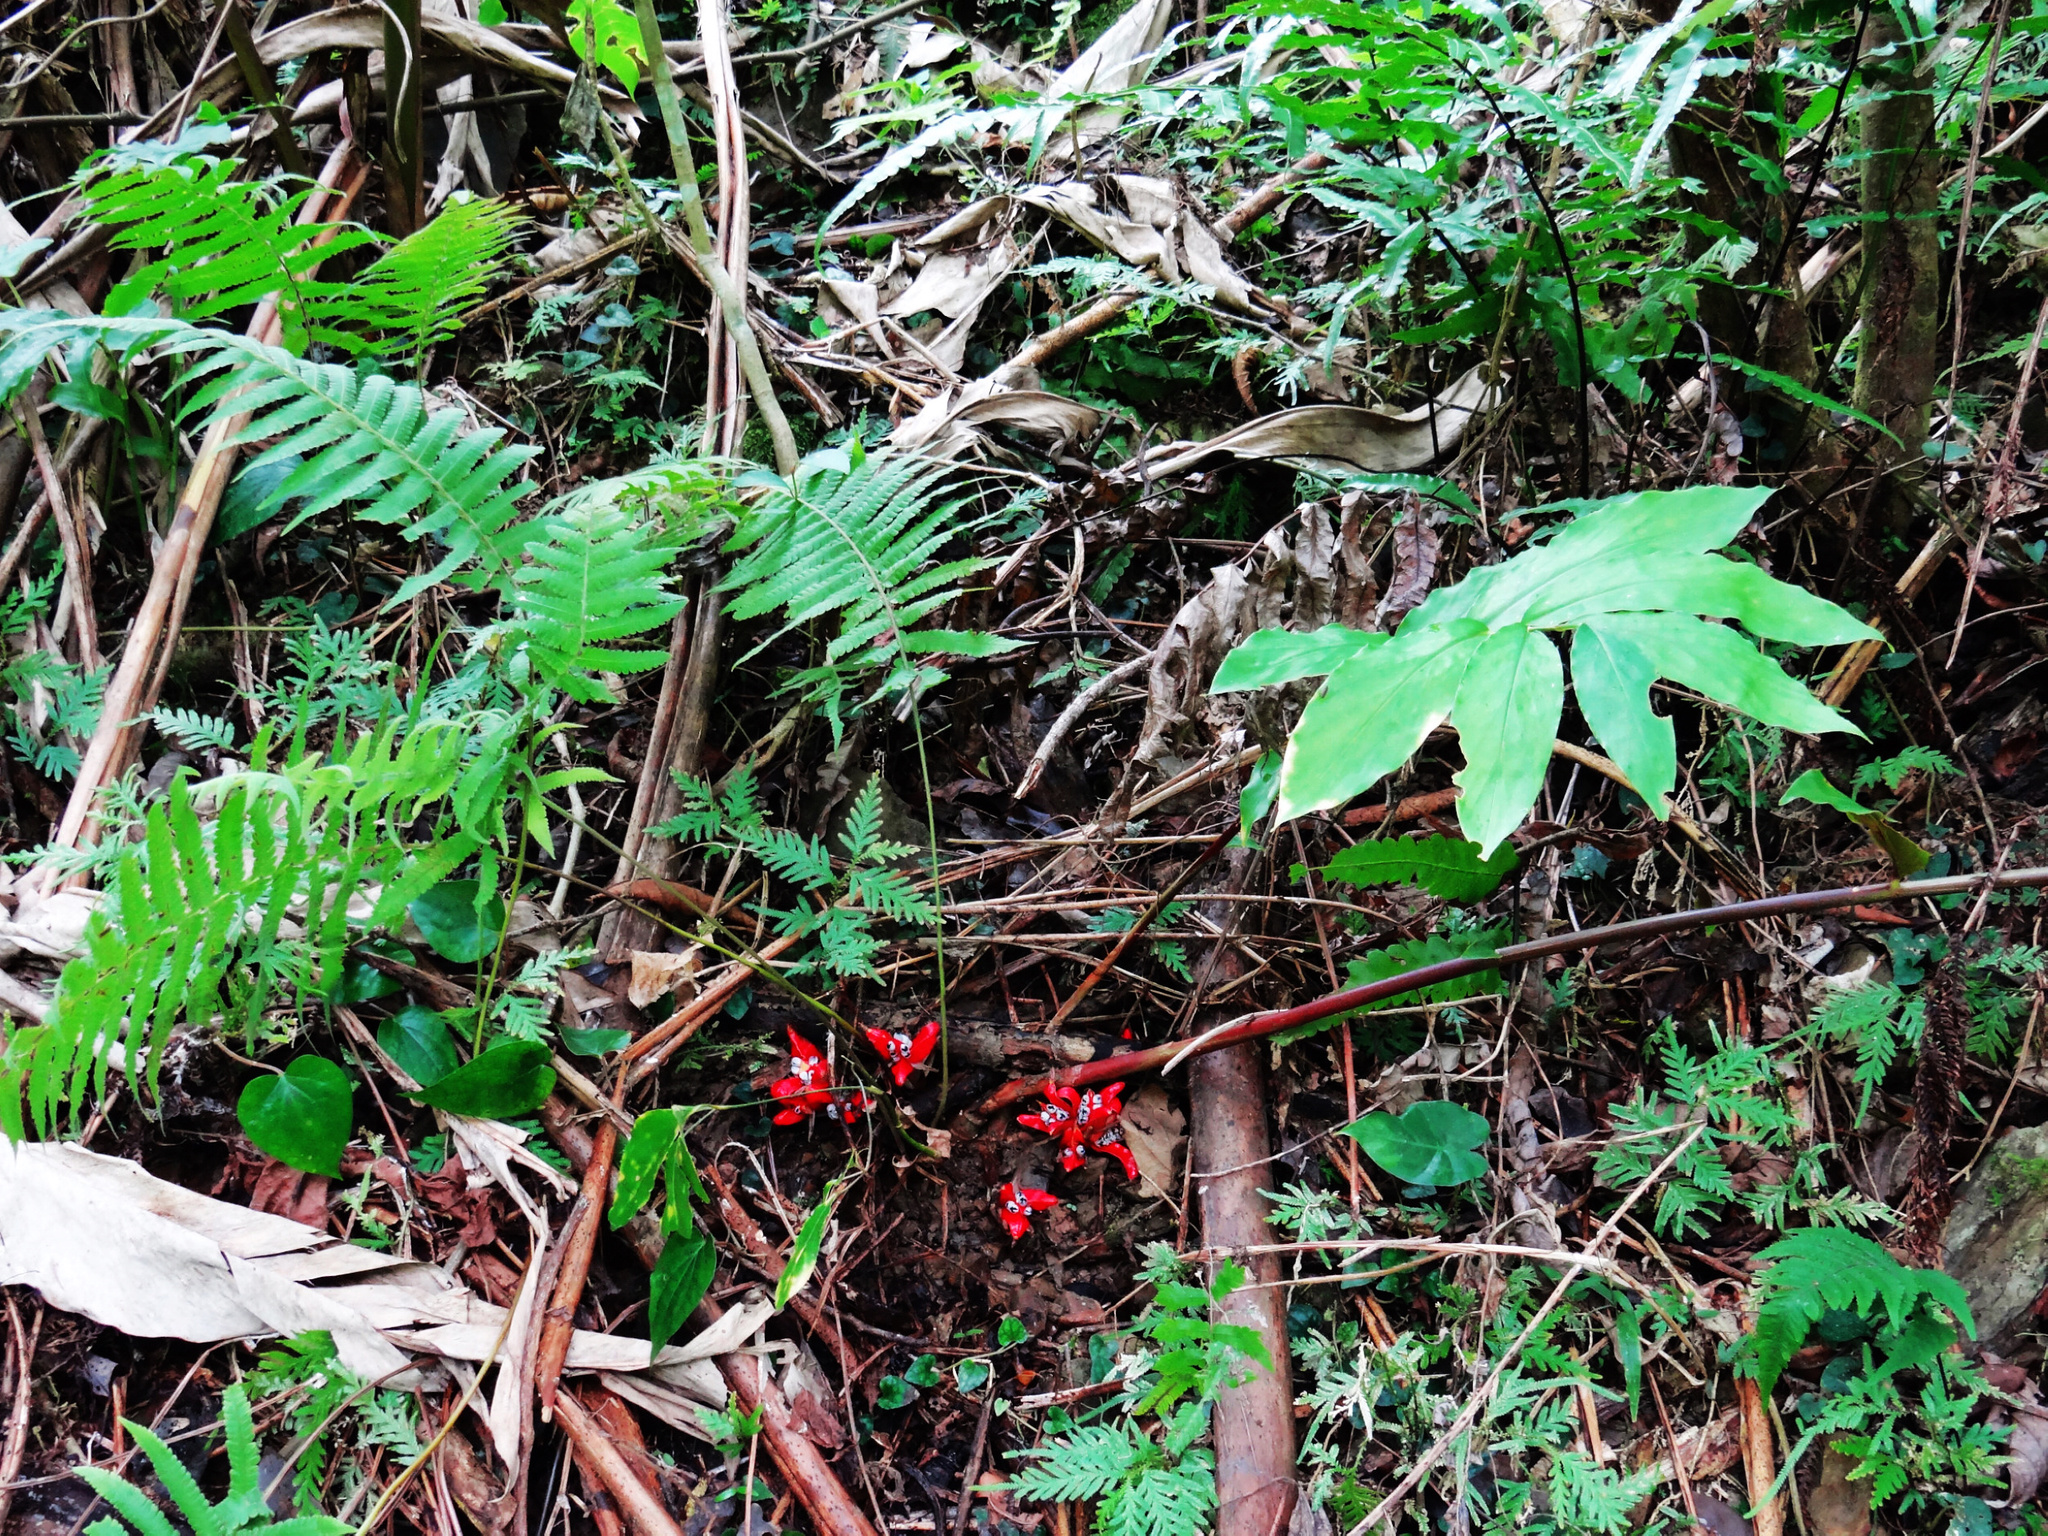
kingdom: Plantae
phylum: Tracheophyta
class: Liliopsida
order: Zingiberales
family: Zingiberaceae
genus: Zingiber
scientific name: Zingiber kawagoii
